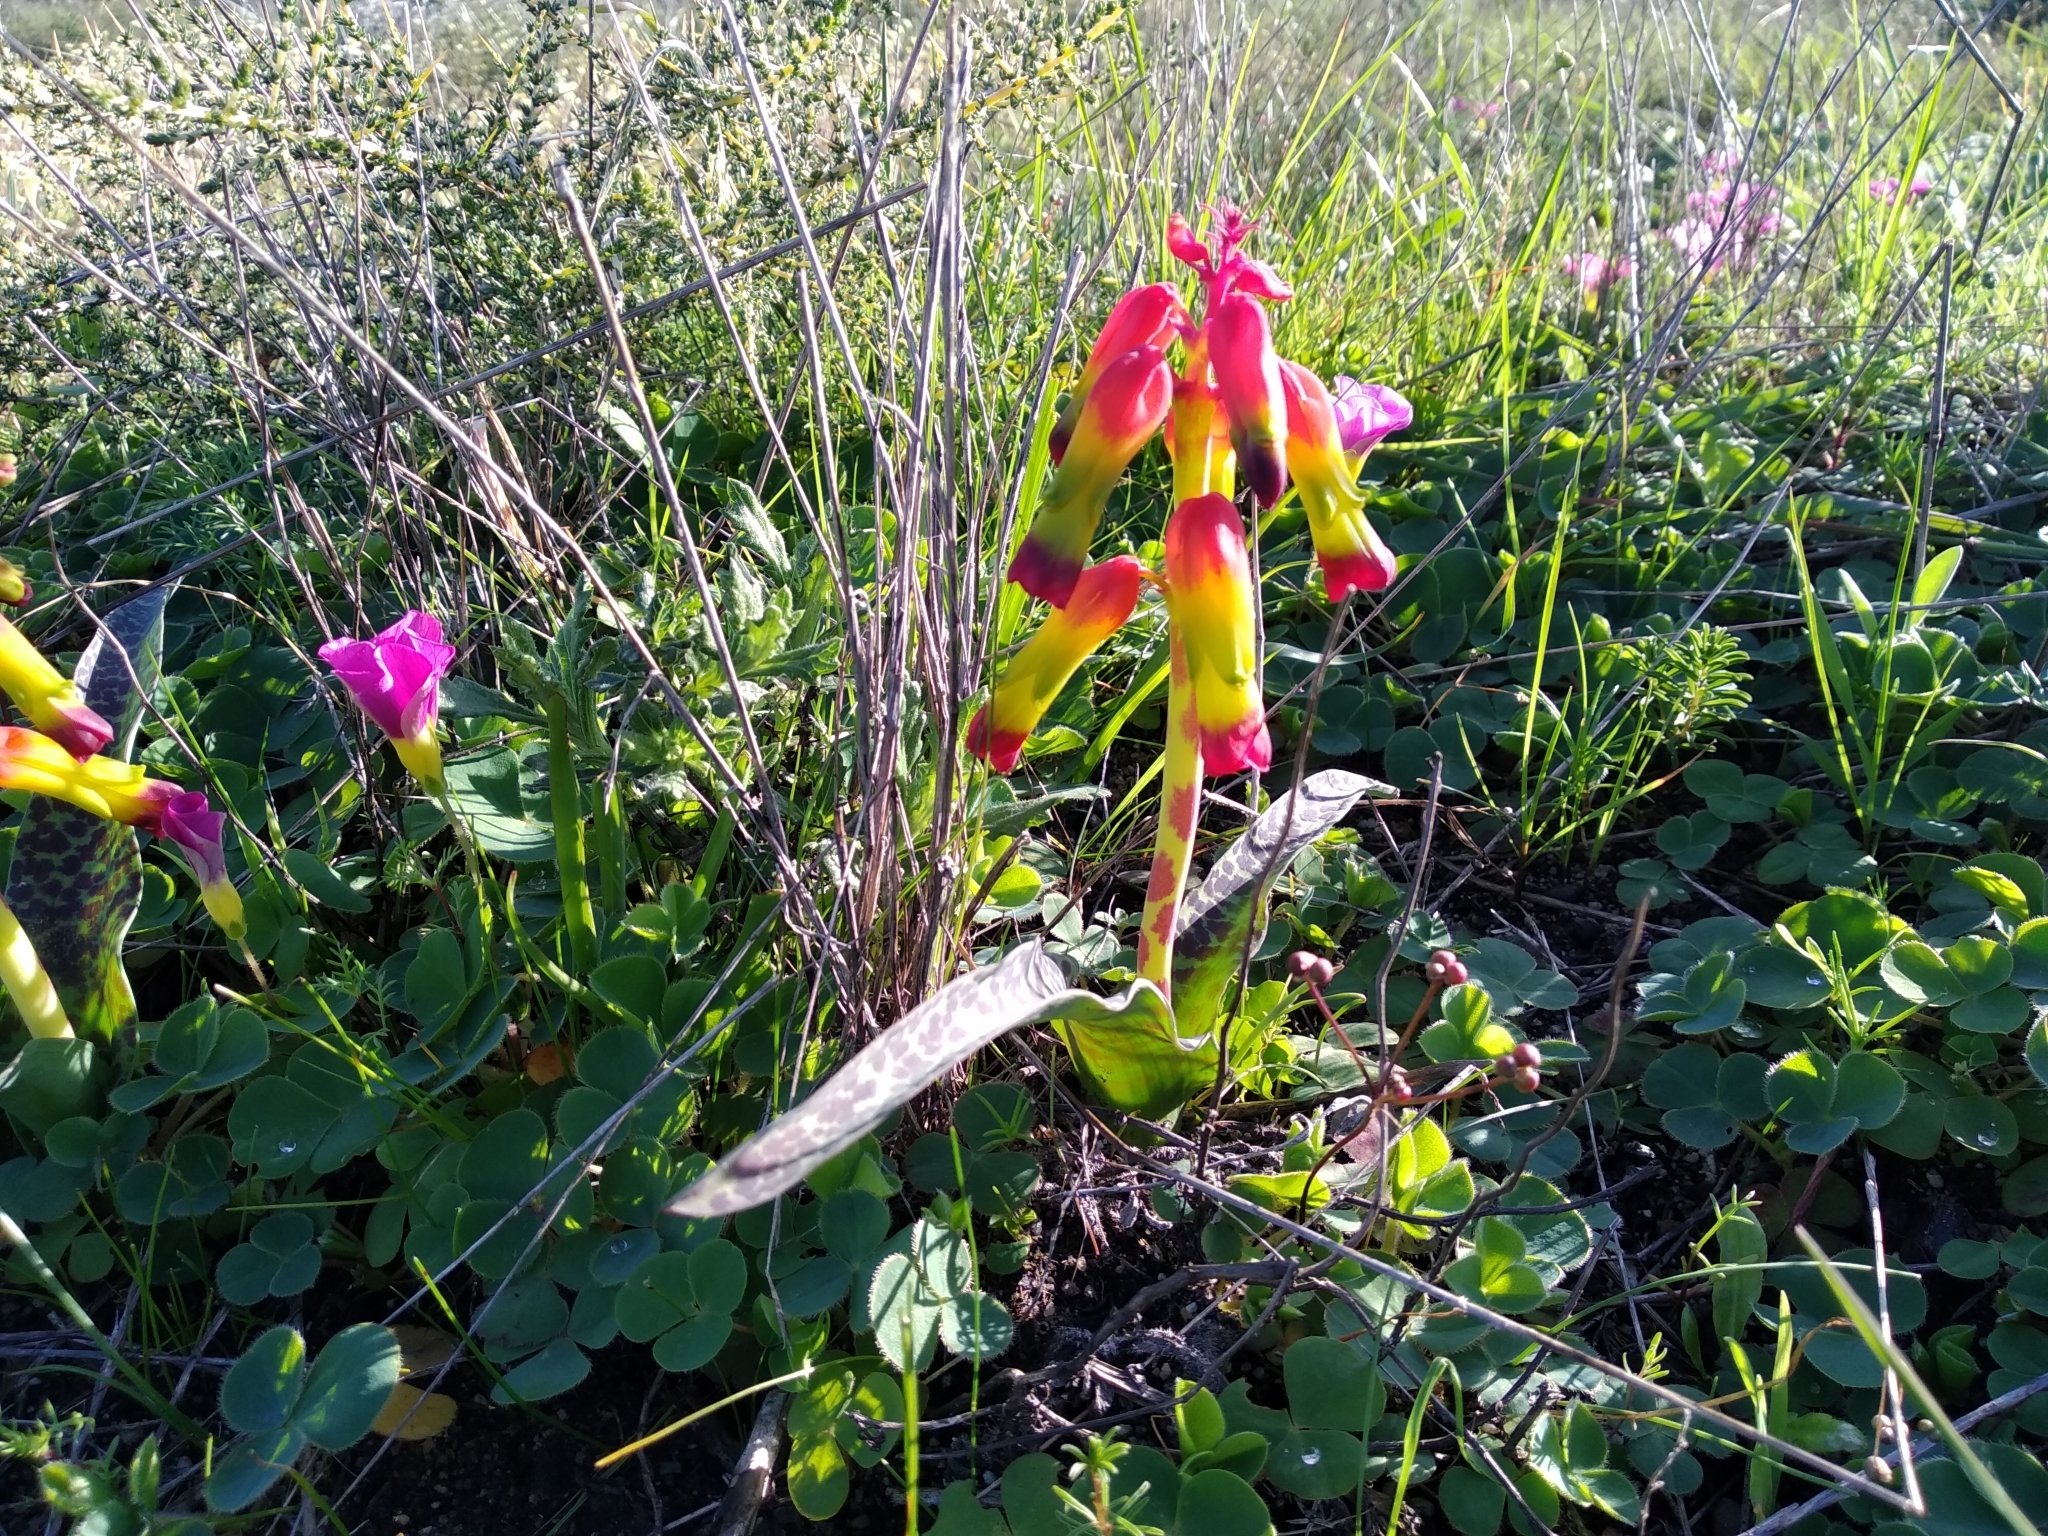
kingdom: Plantae
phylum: Tracheophyta
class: Liliopsida
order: Asparagales
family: Asparagaceae
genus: Lachenalia
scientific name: Lachenalia quadricolor
